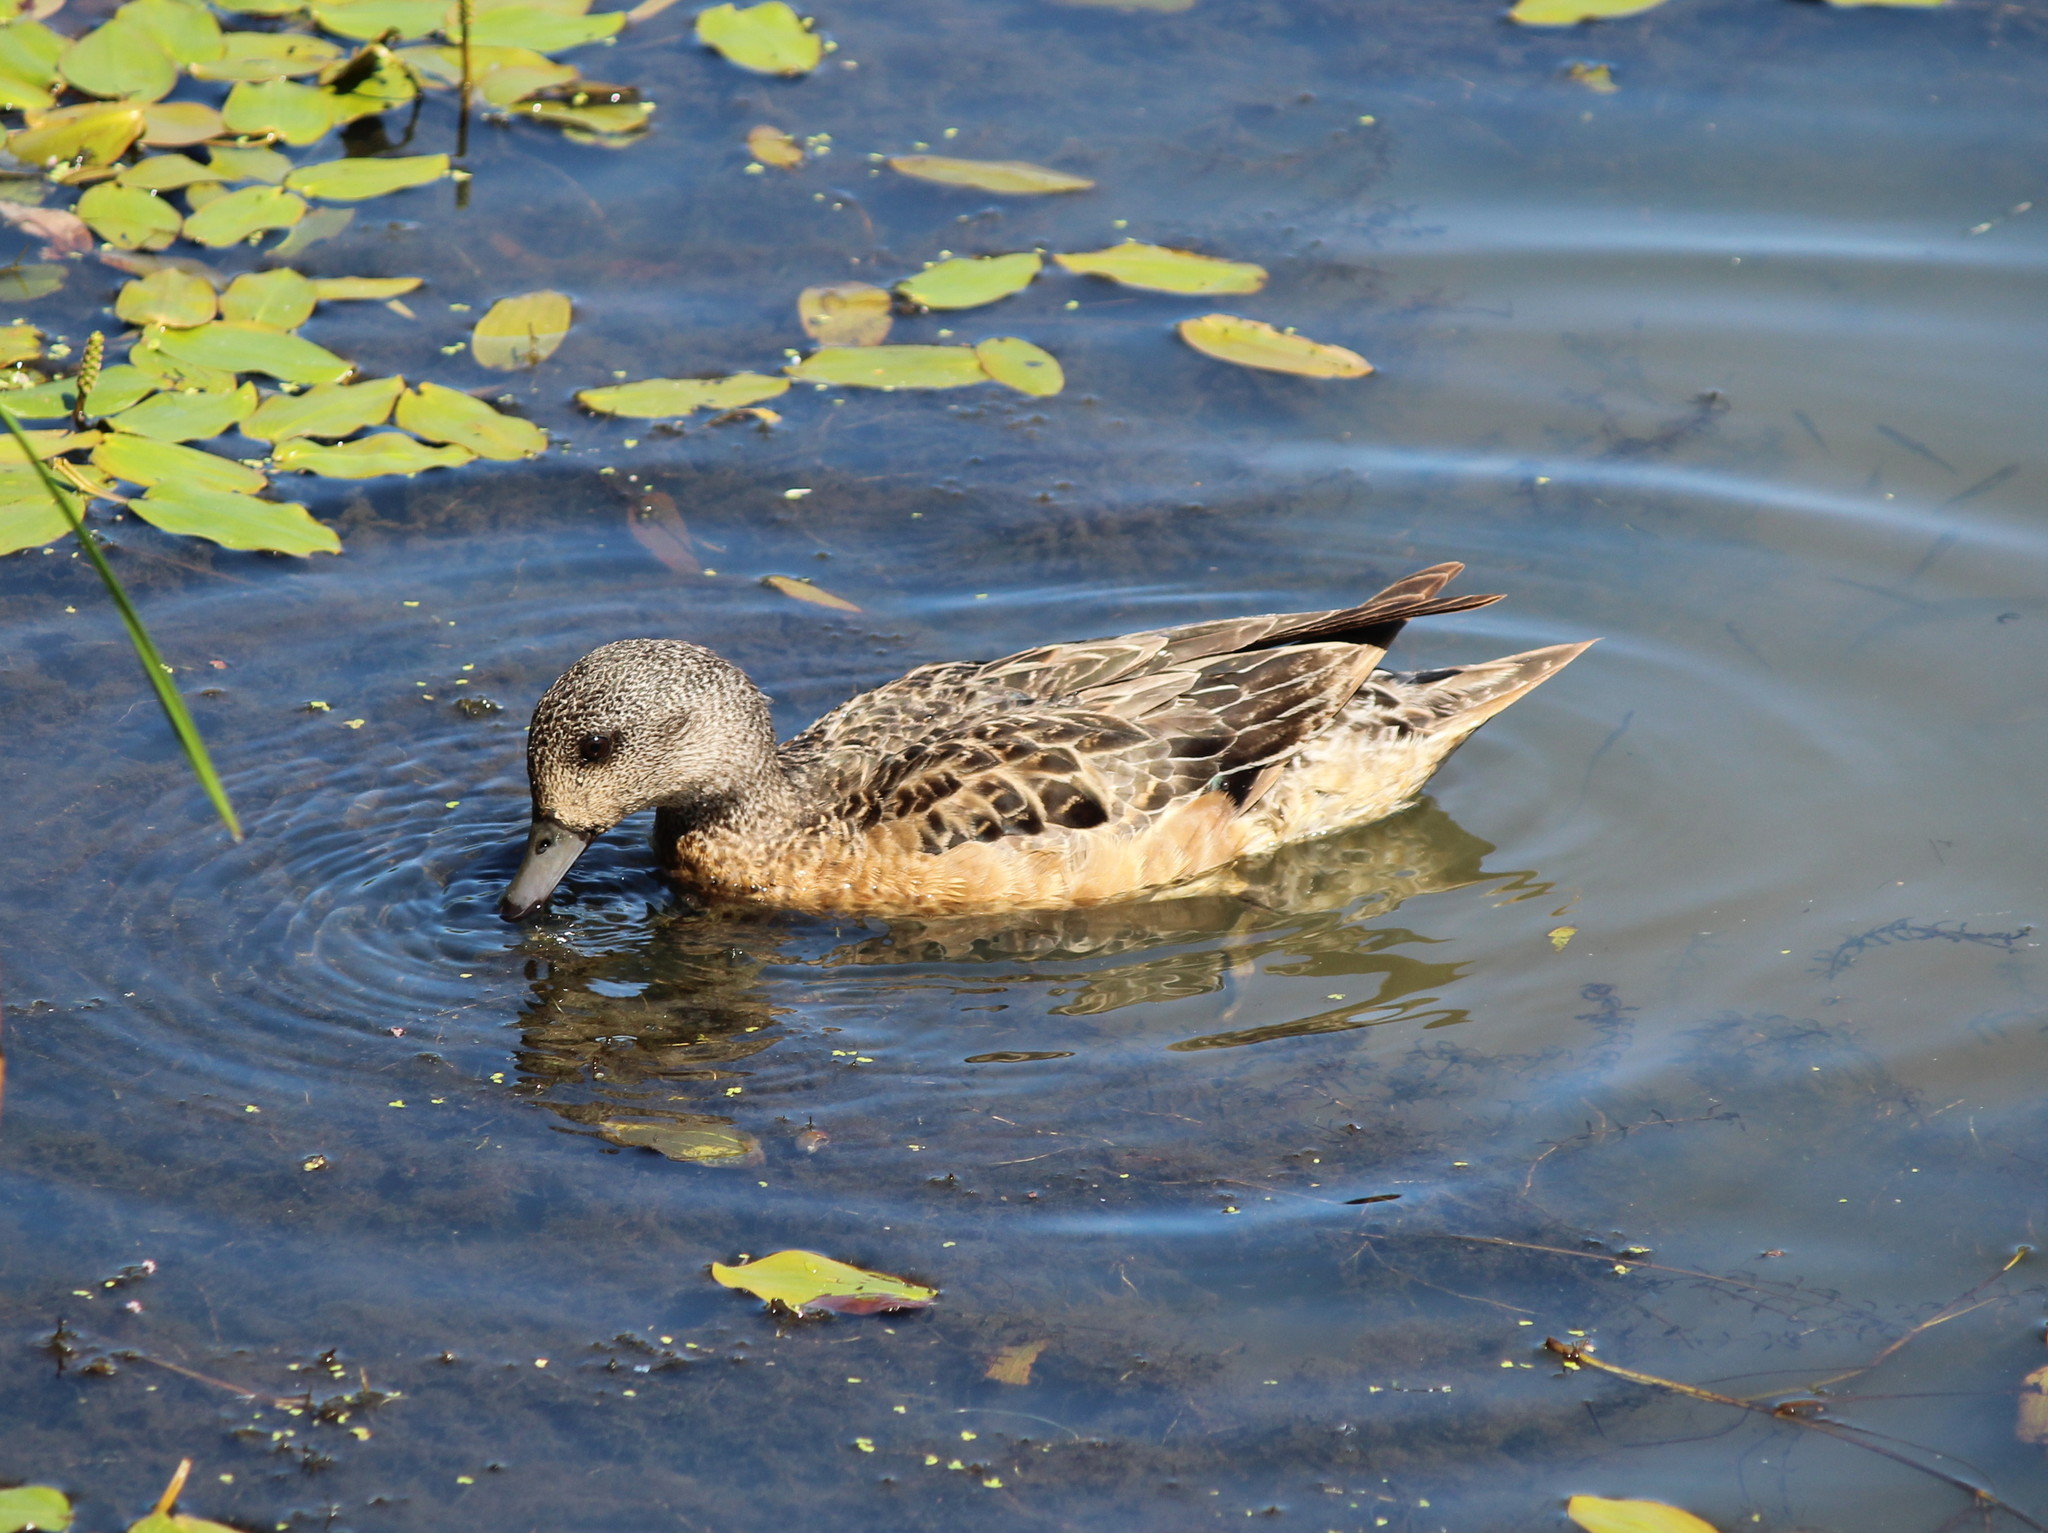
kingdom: Animalia
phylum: Chordata
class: Aves
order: Anseriformes
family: Anatidae
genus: Mareca
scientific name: Mareca americana
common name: American wigeon
